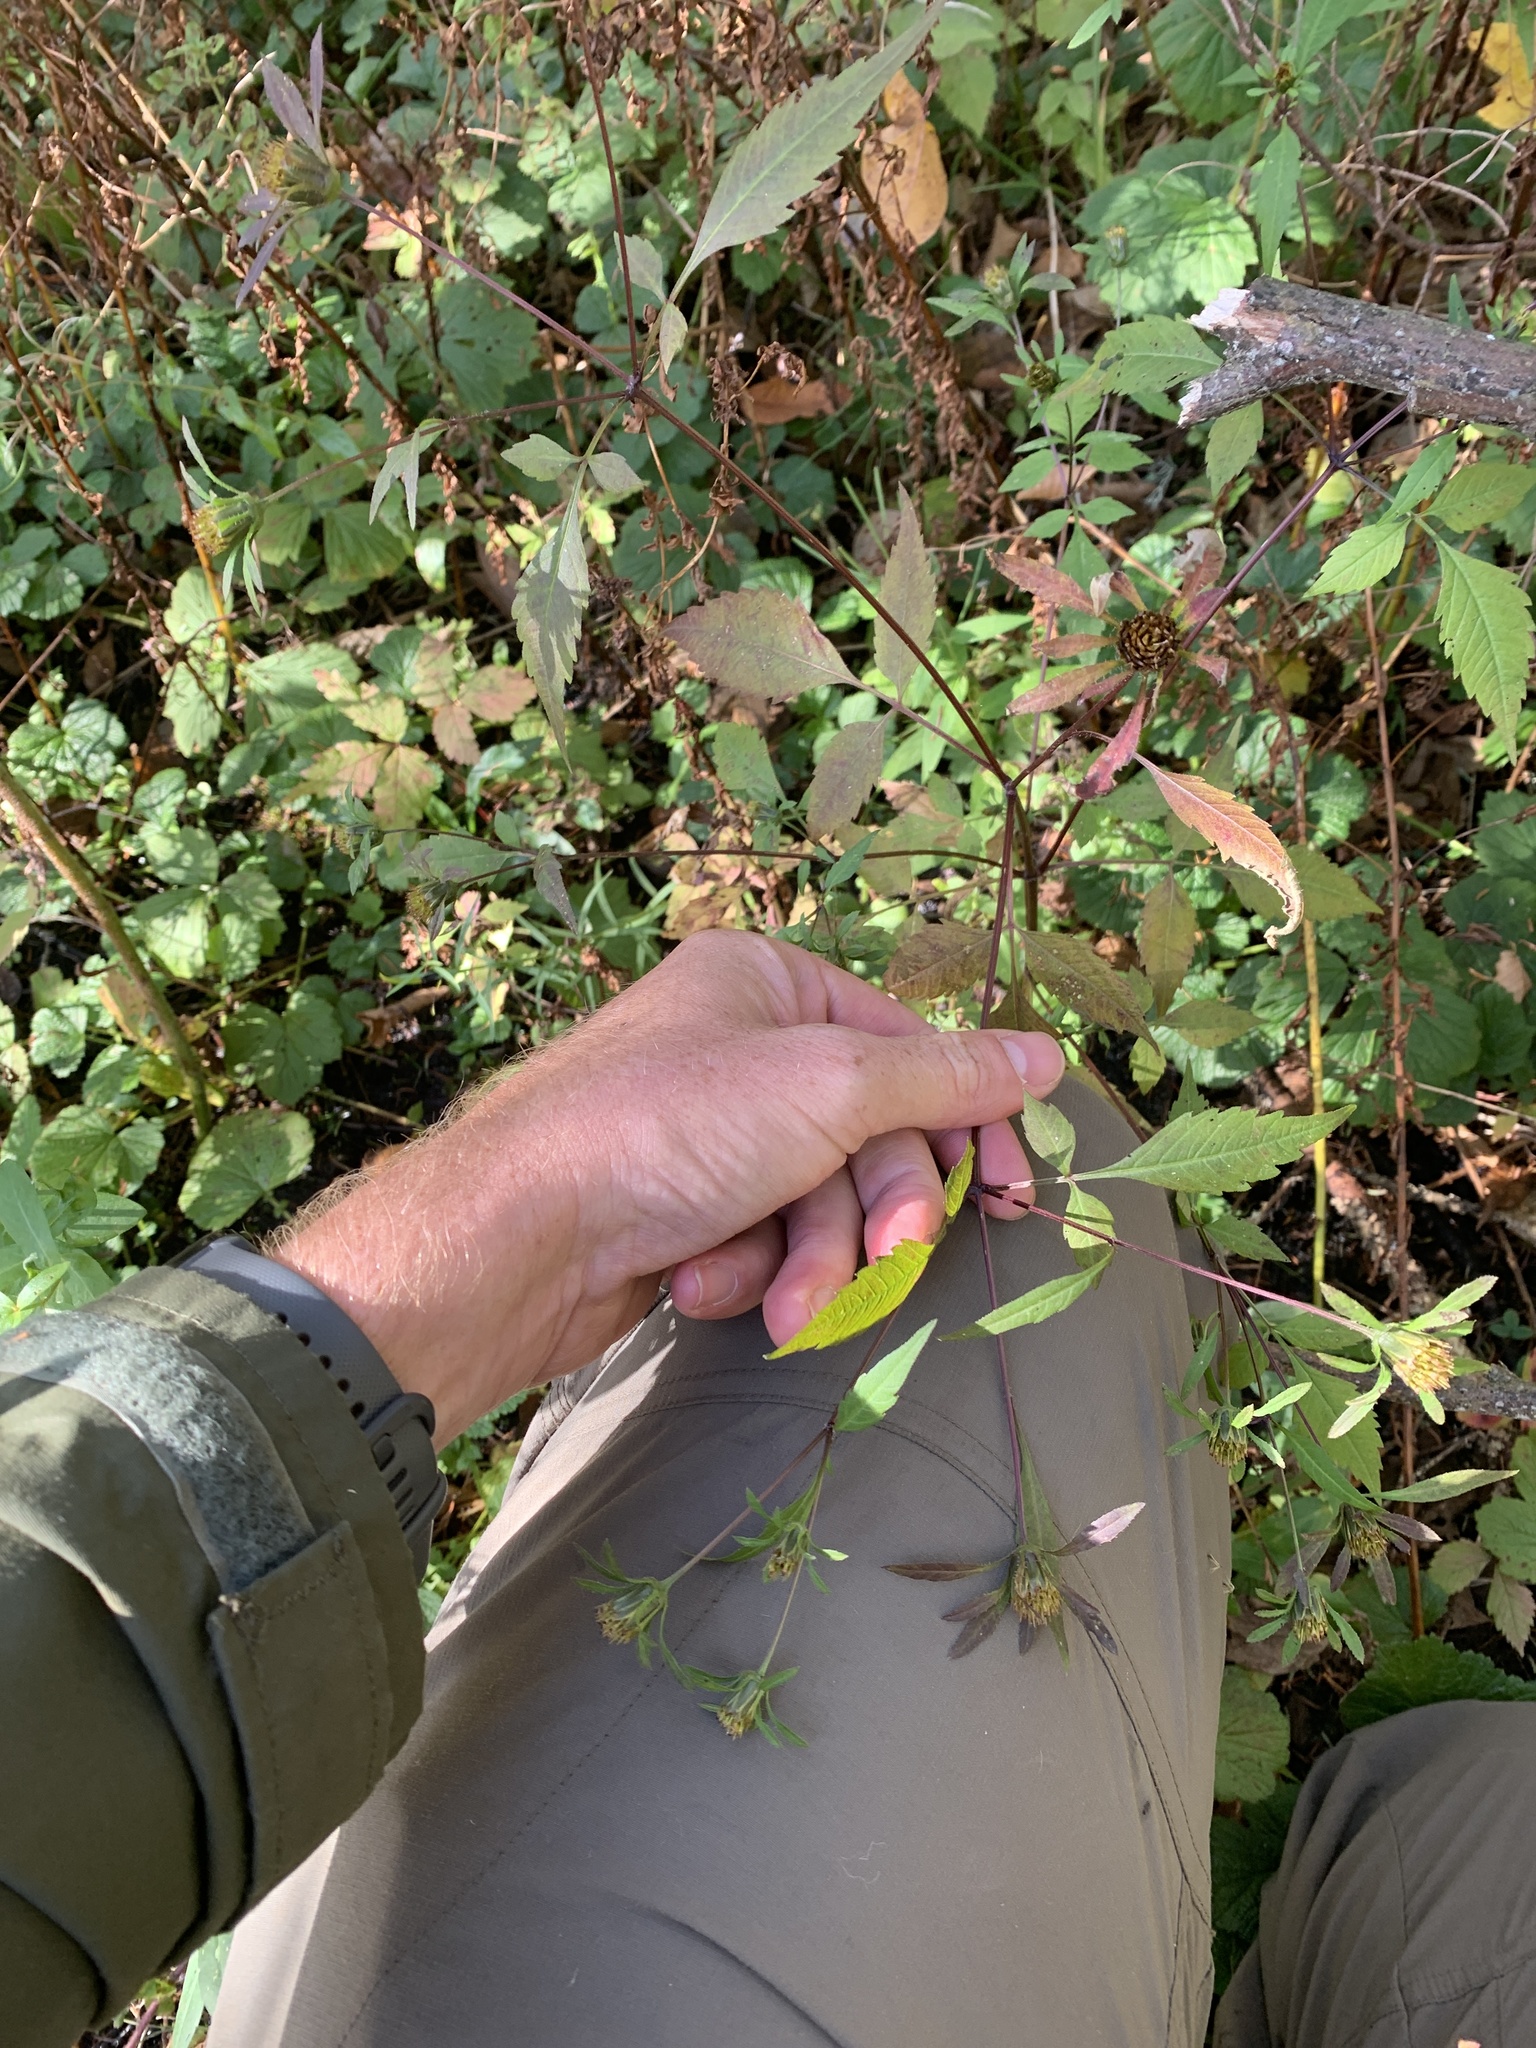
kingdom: Plantae
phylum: Tracheophyta
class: Magnoliopsida
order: Asterales
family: Asteraceae
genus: Bidens
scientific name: Bidens frondosa
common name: Beggarticks
